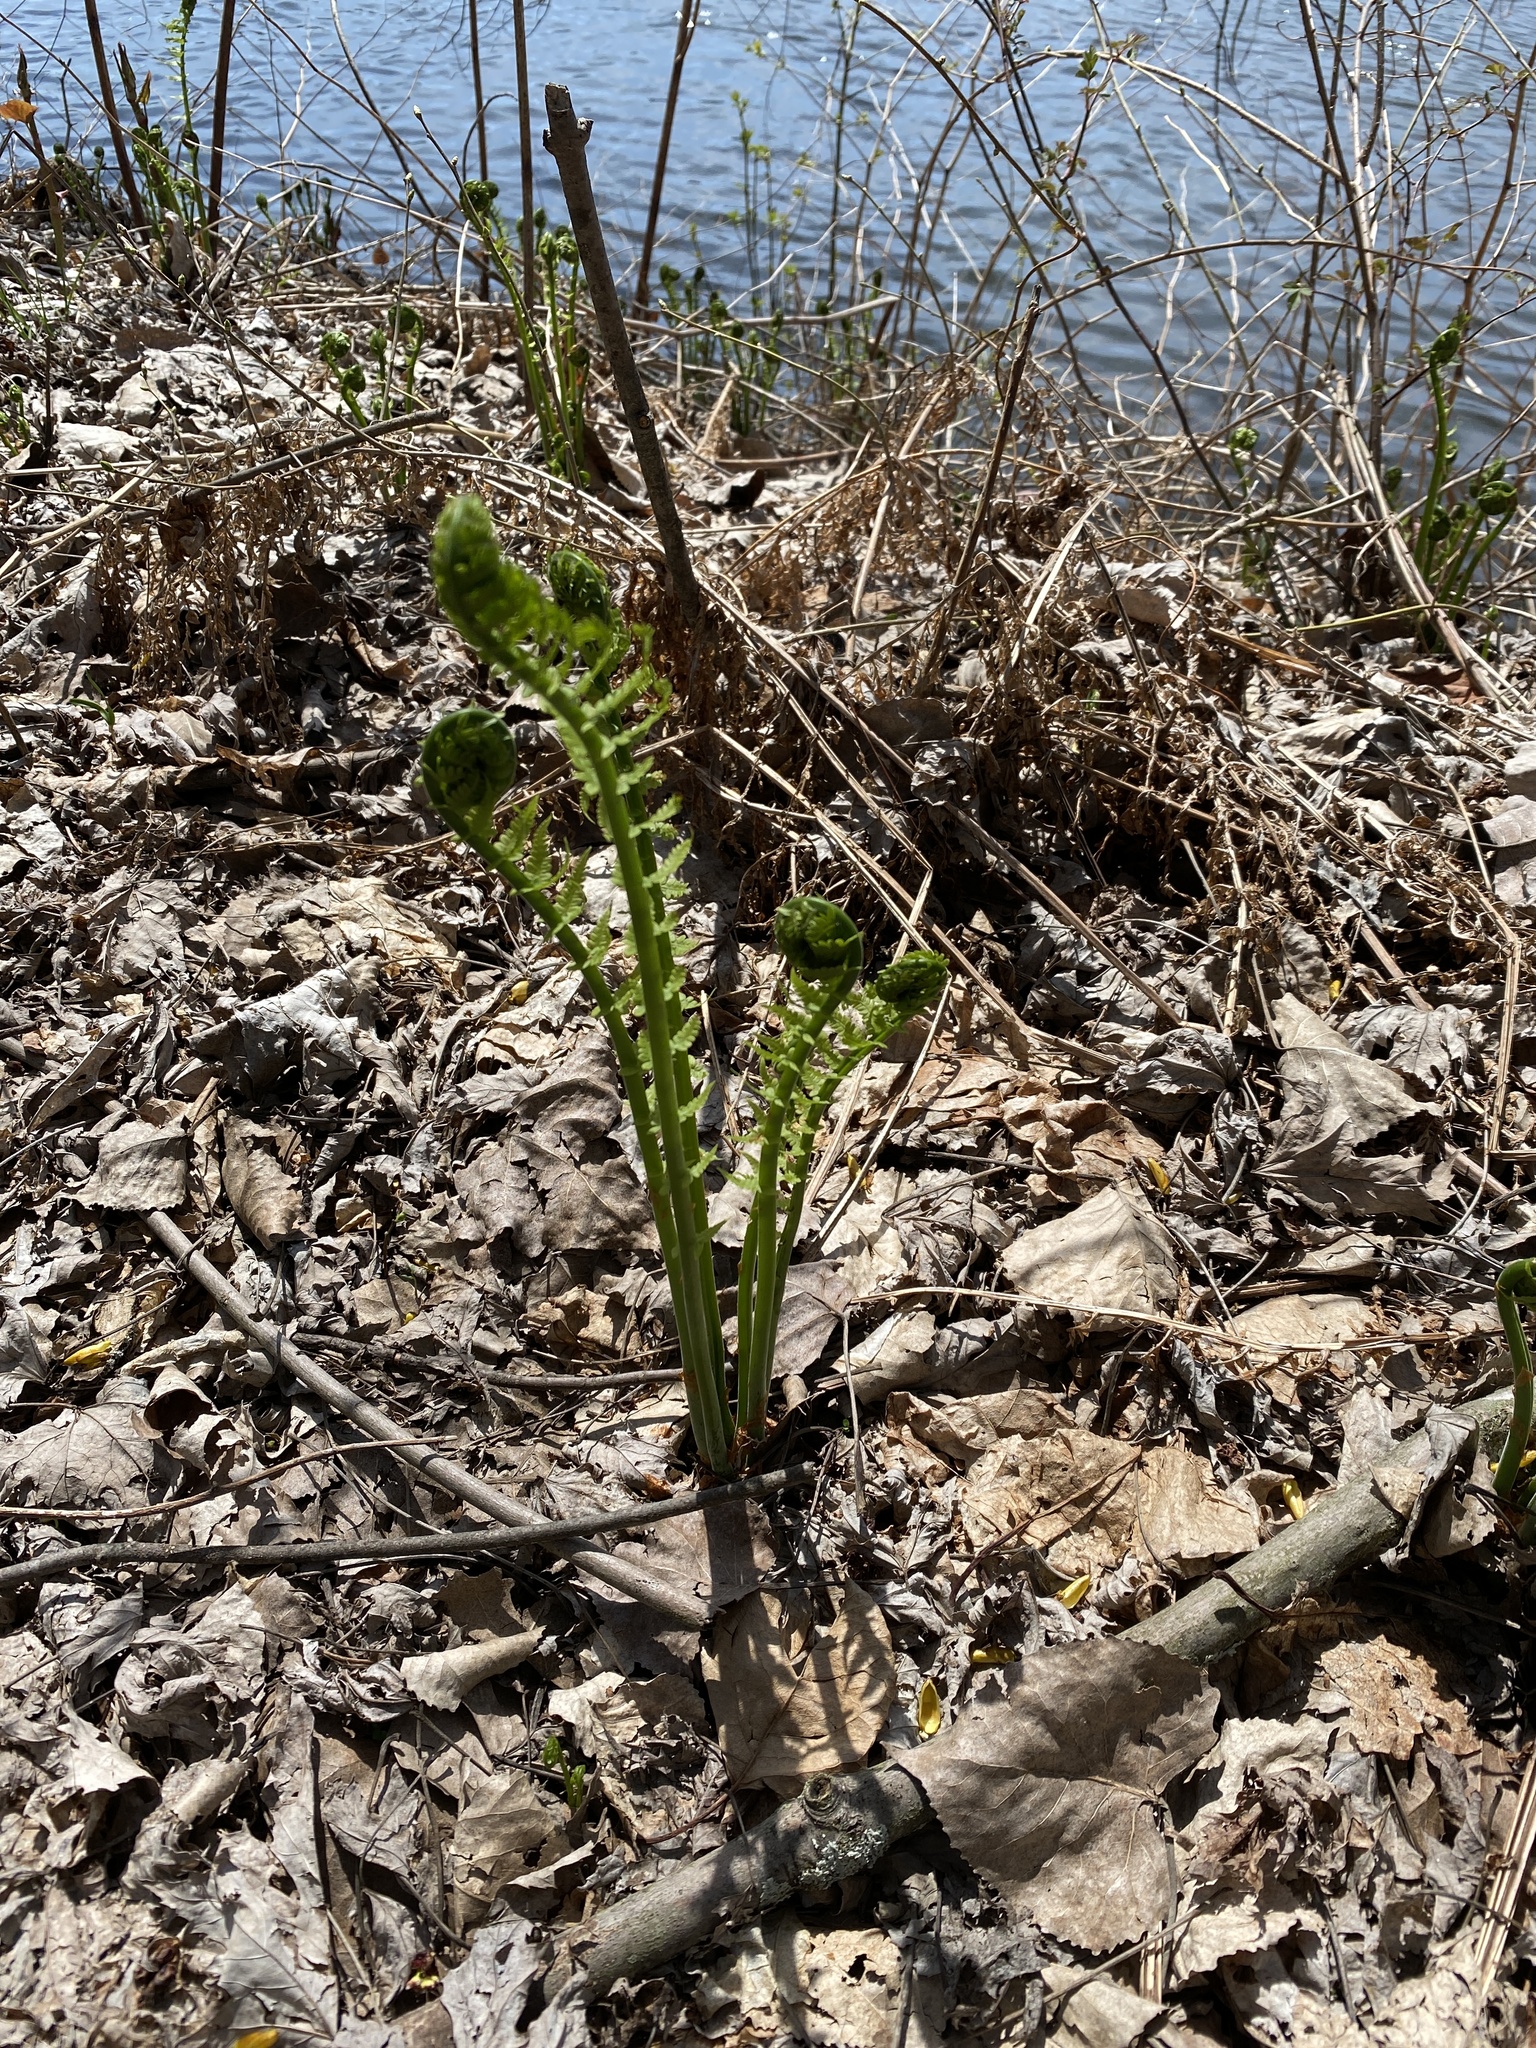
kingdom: Plantae
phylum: Tracheophyta
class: Polypodiopsida
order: Polypodiales
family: Onocleaceae
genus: Matteuccia
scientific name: Matteuccia struthiopteris
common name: Ostrich fern
